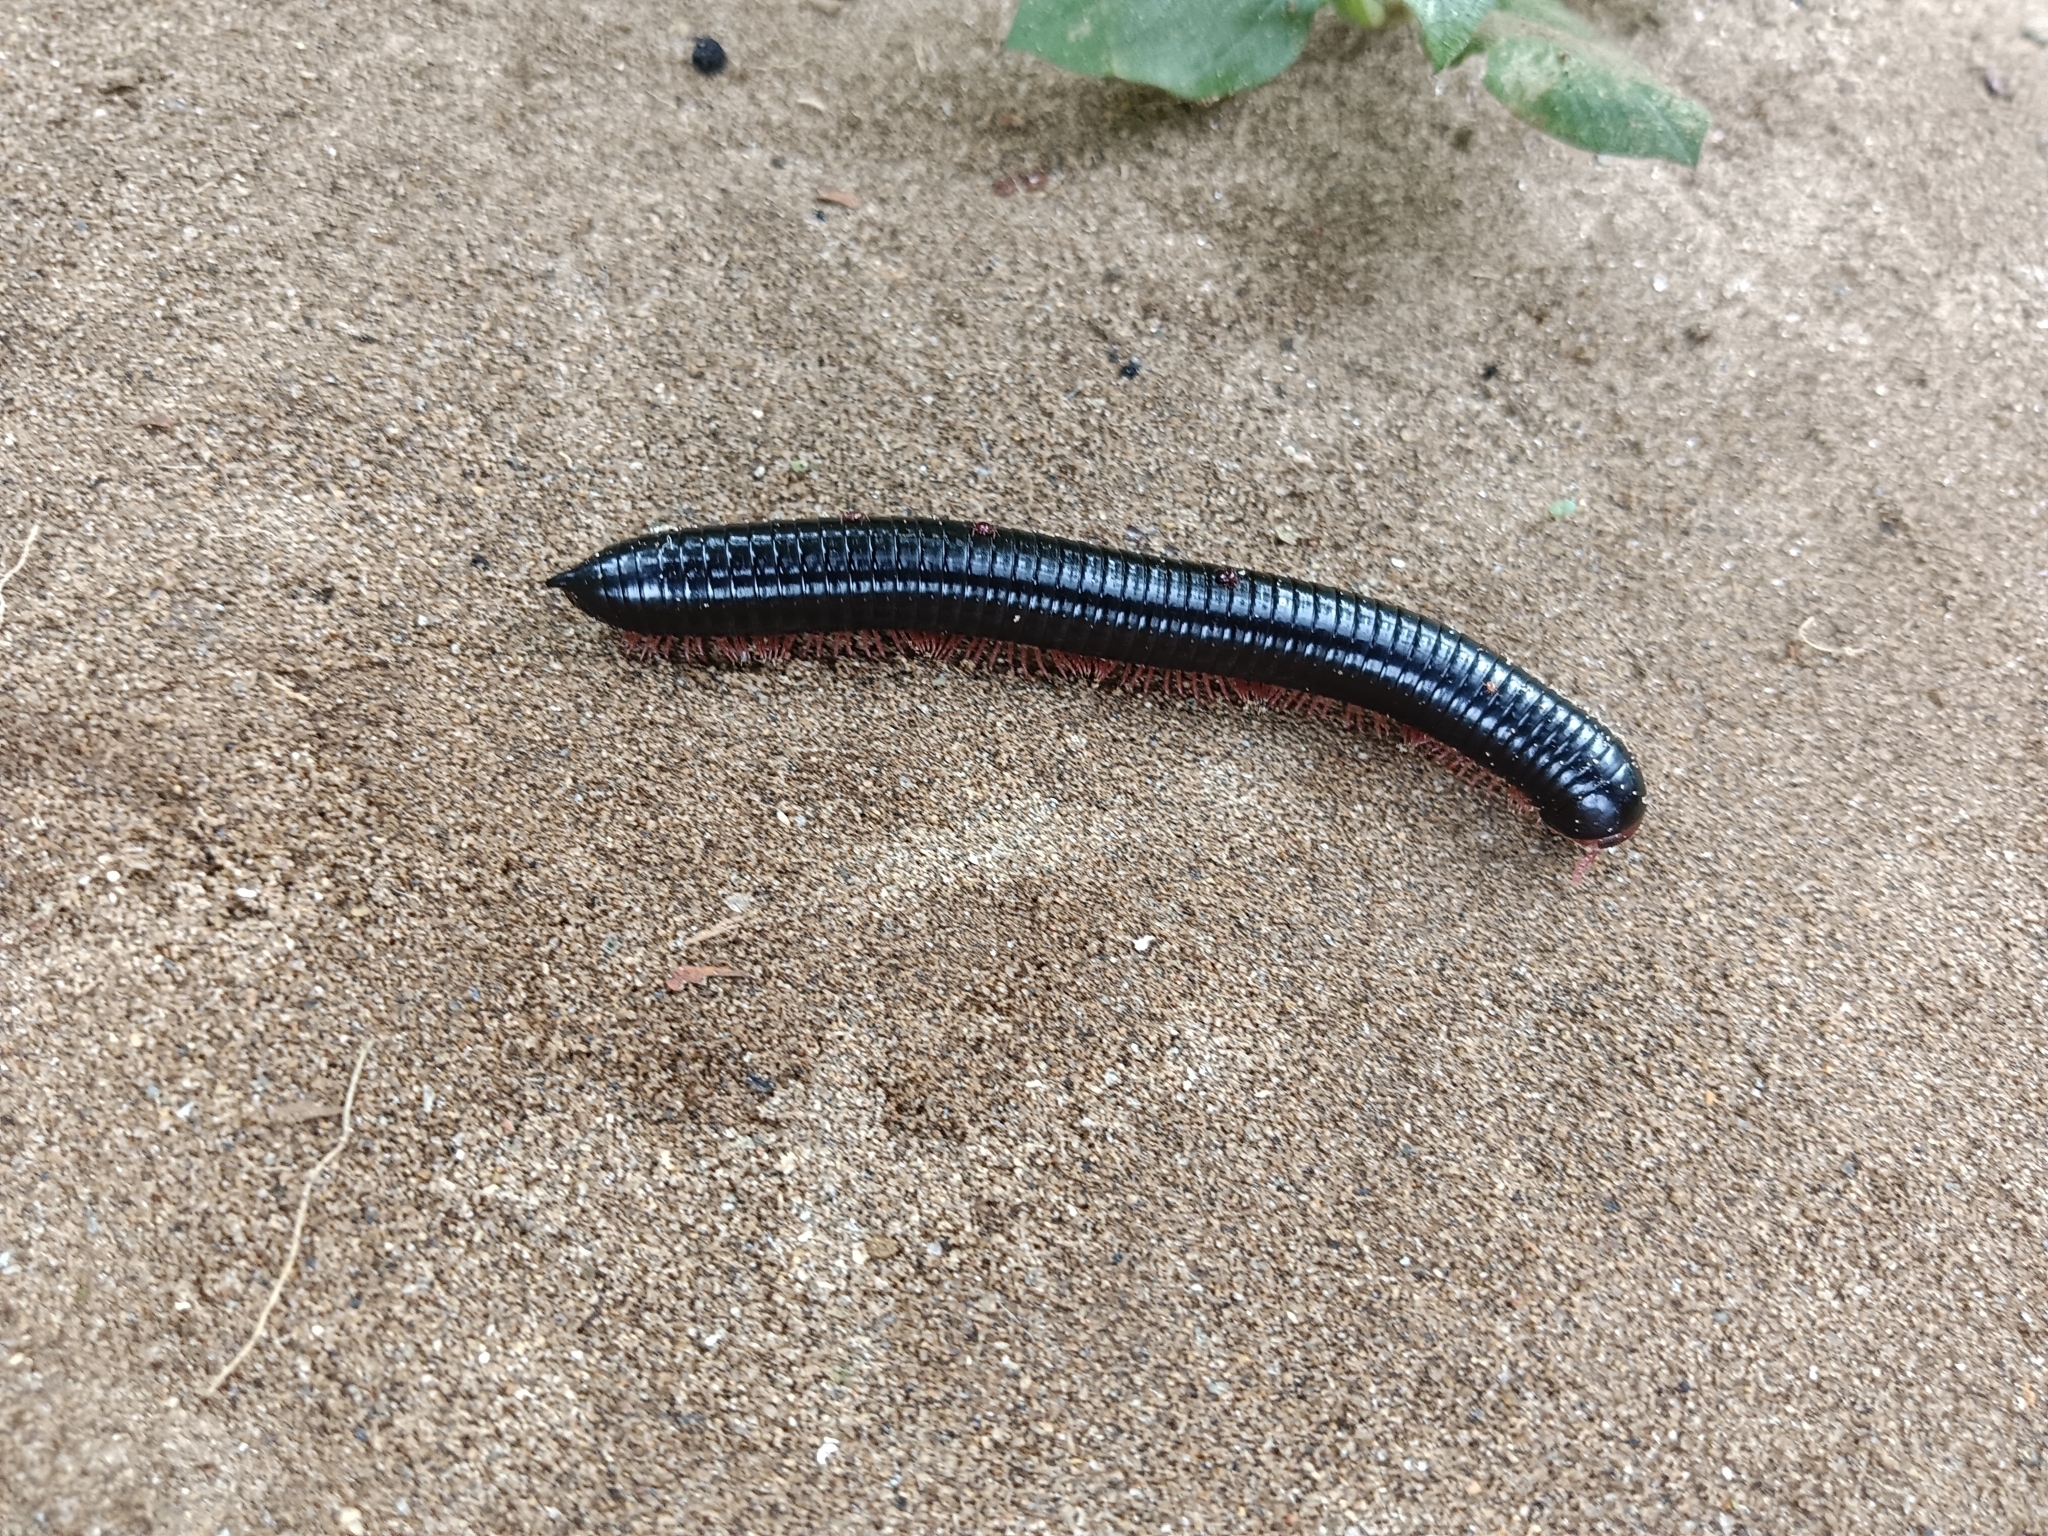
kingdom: Animalia
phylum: Arthropoda
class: Diplopoda
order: Spirostreptida
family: Harpagophoridae
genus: Phyllogonostreptus
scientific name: Phyllogonostreptus nigrolabiatus
